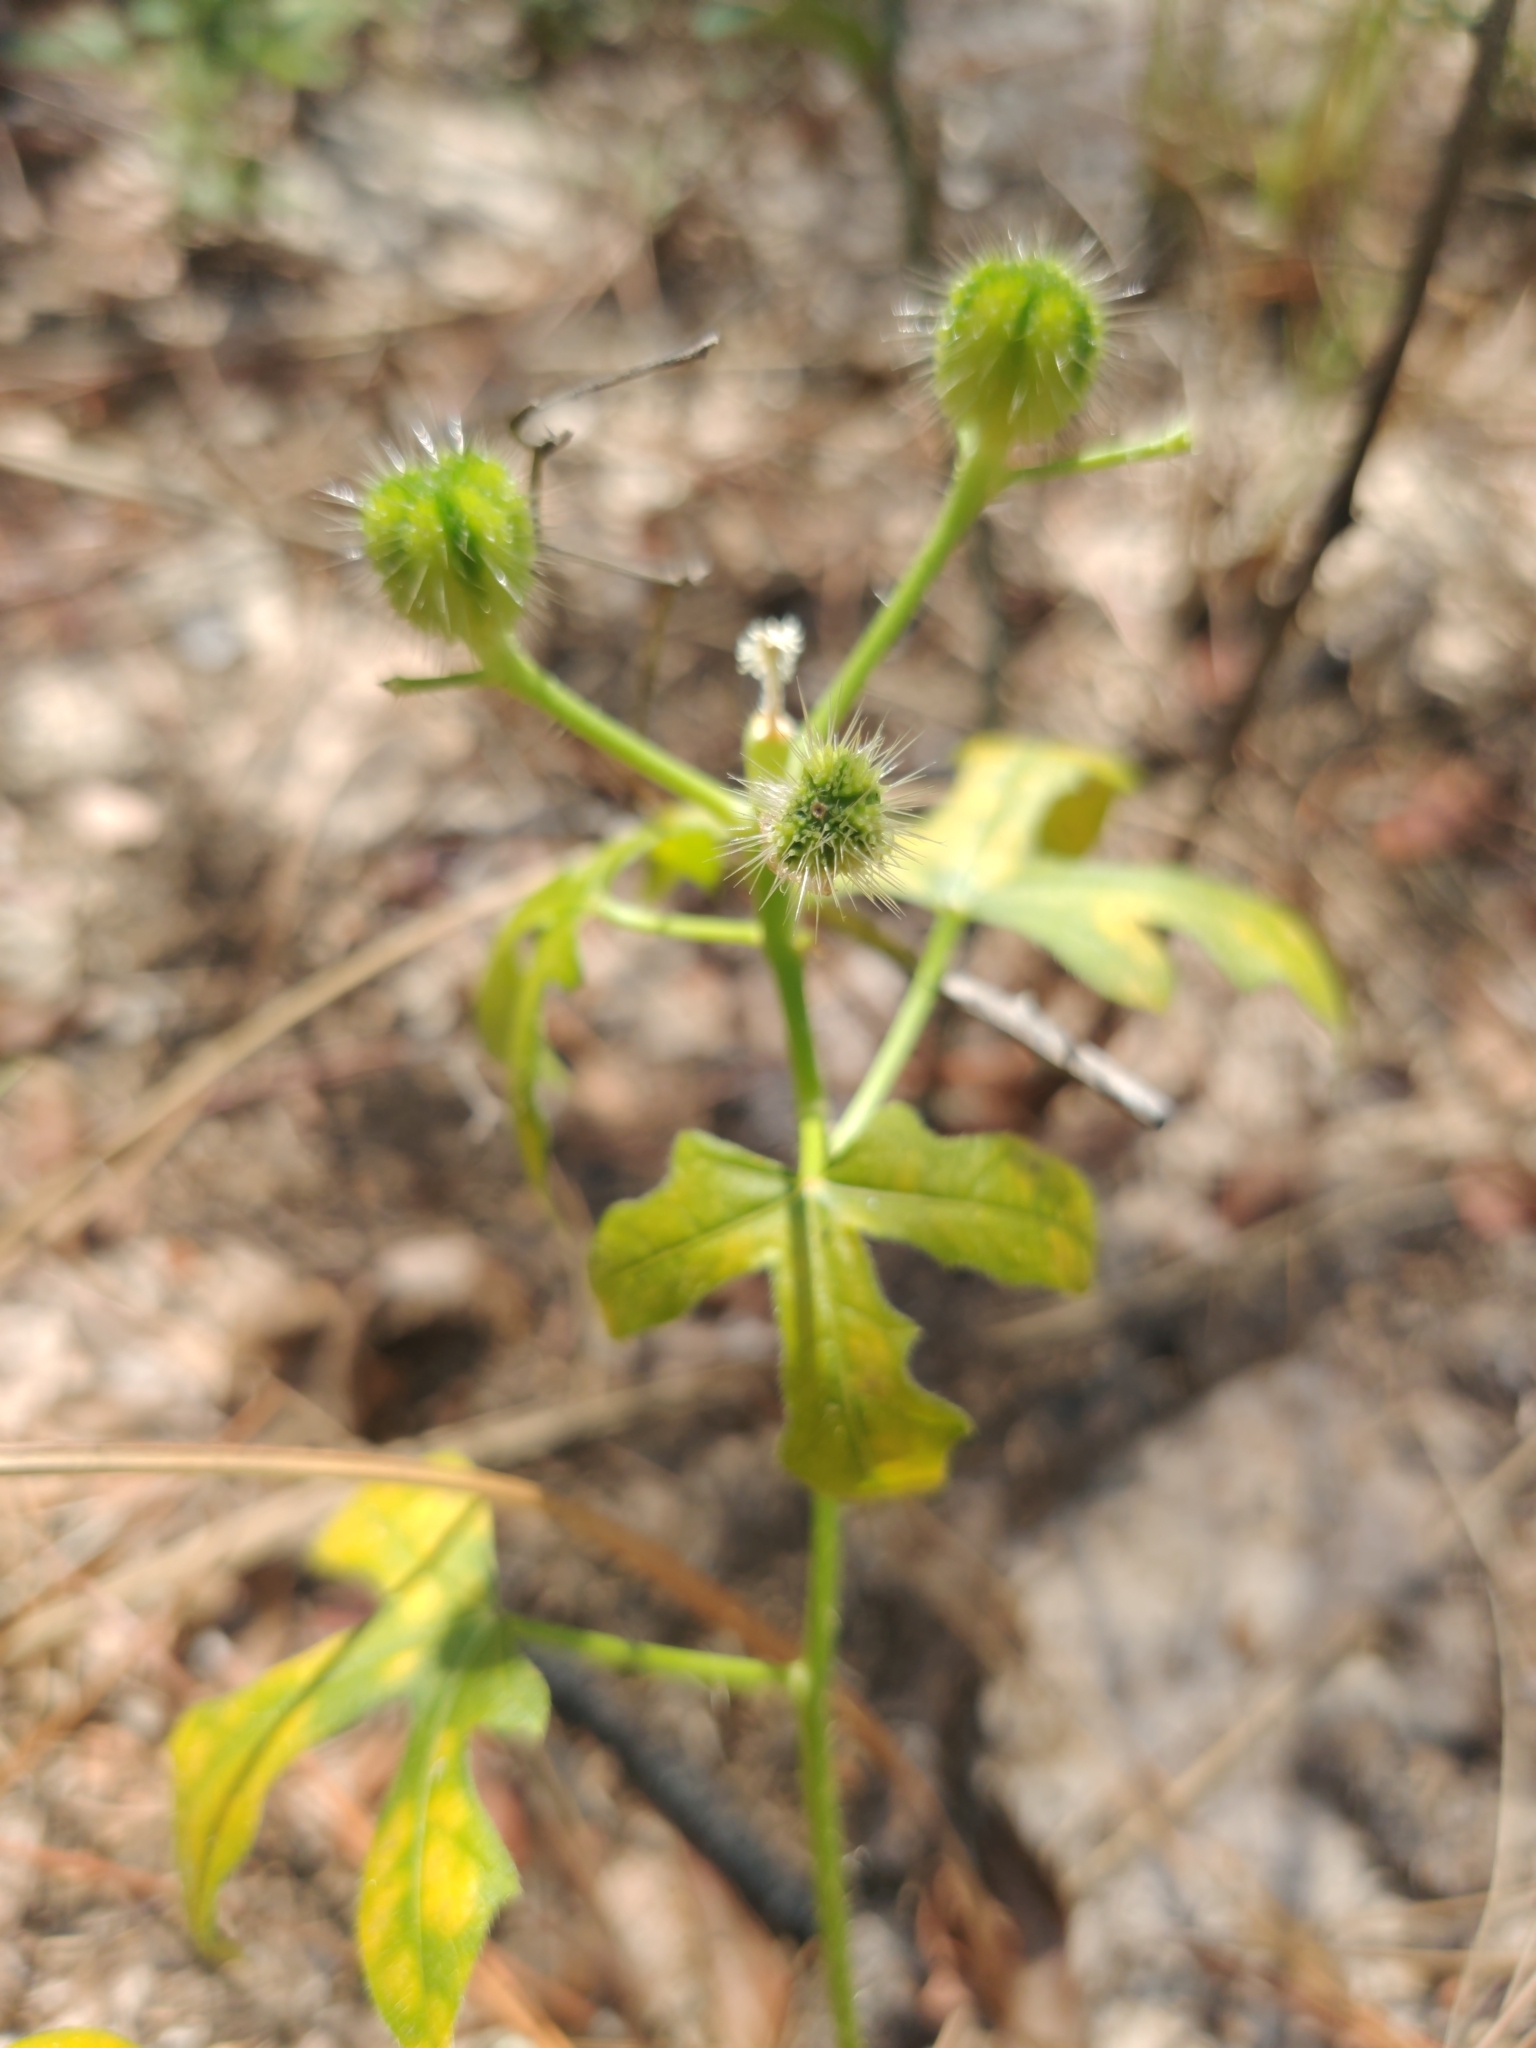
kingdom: Plantae
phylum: Tracheophyta
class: Magnoliopsida
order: Malpighiales
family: Euphorbiaceae
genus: Cnidoscolus
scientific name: Cnidoscolus stimulosus
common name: Bull-nettle
